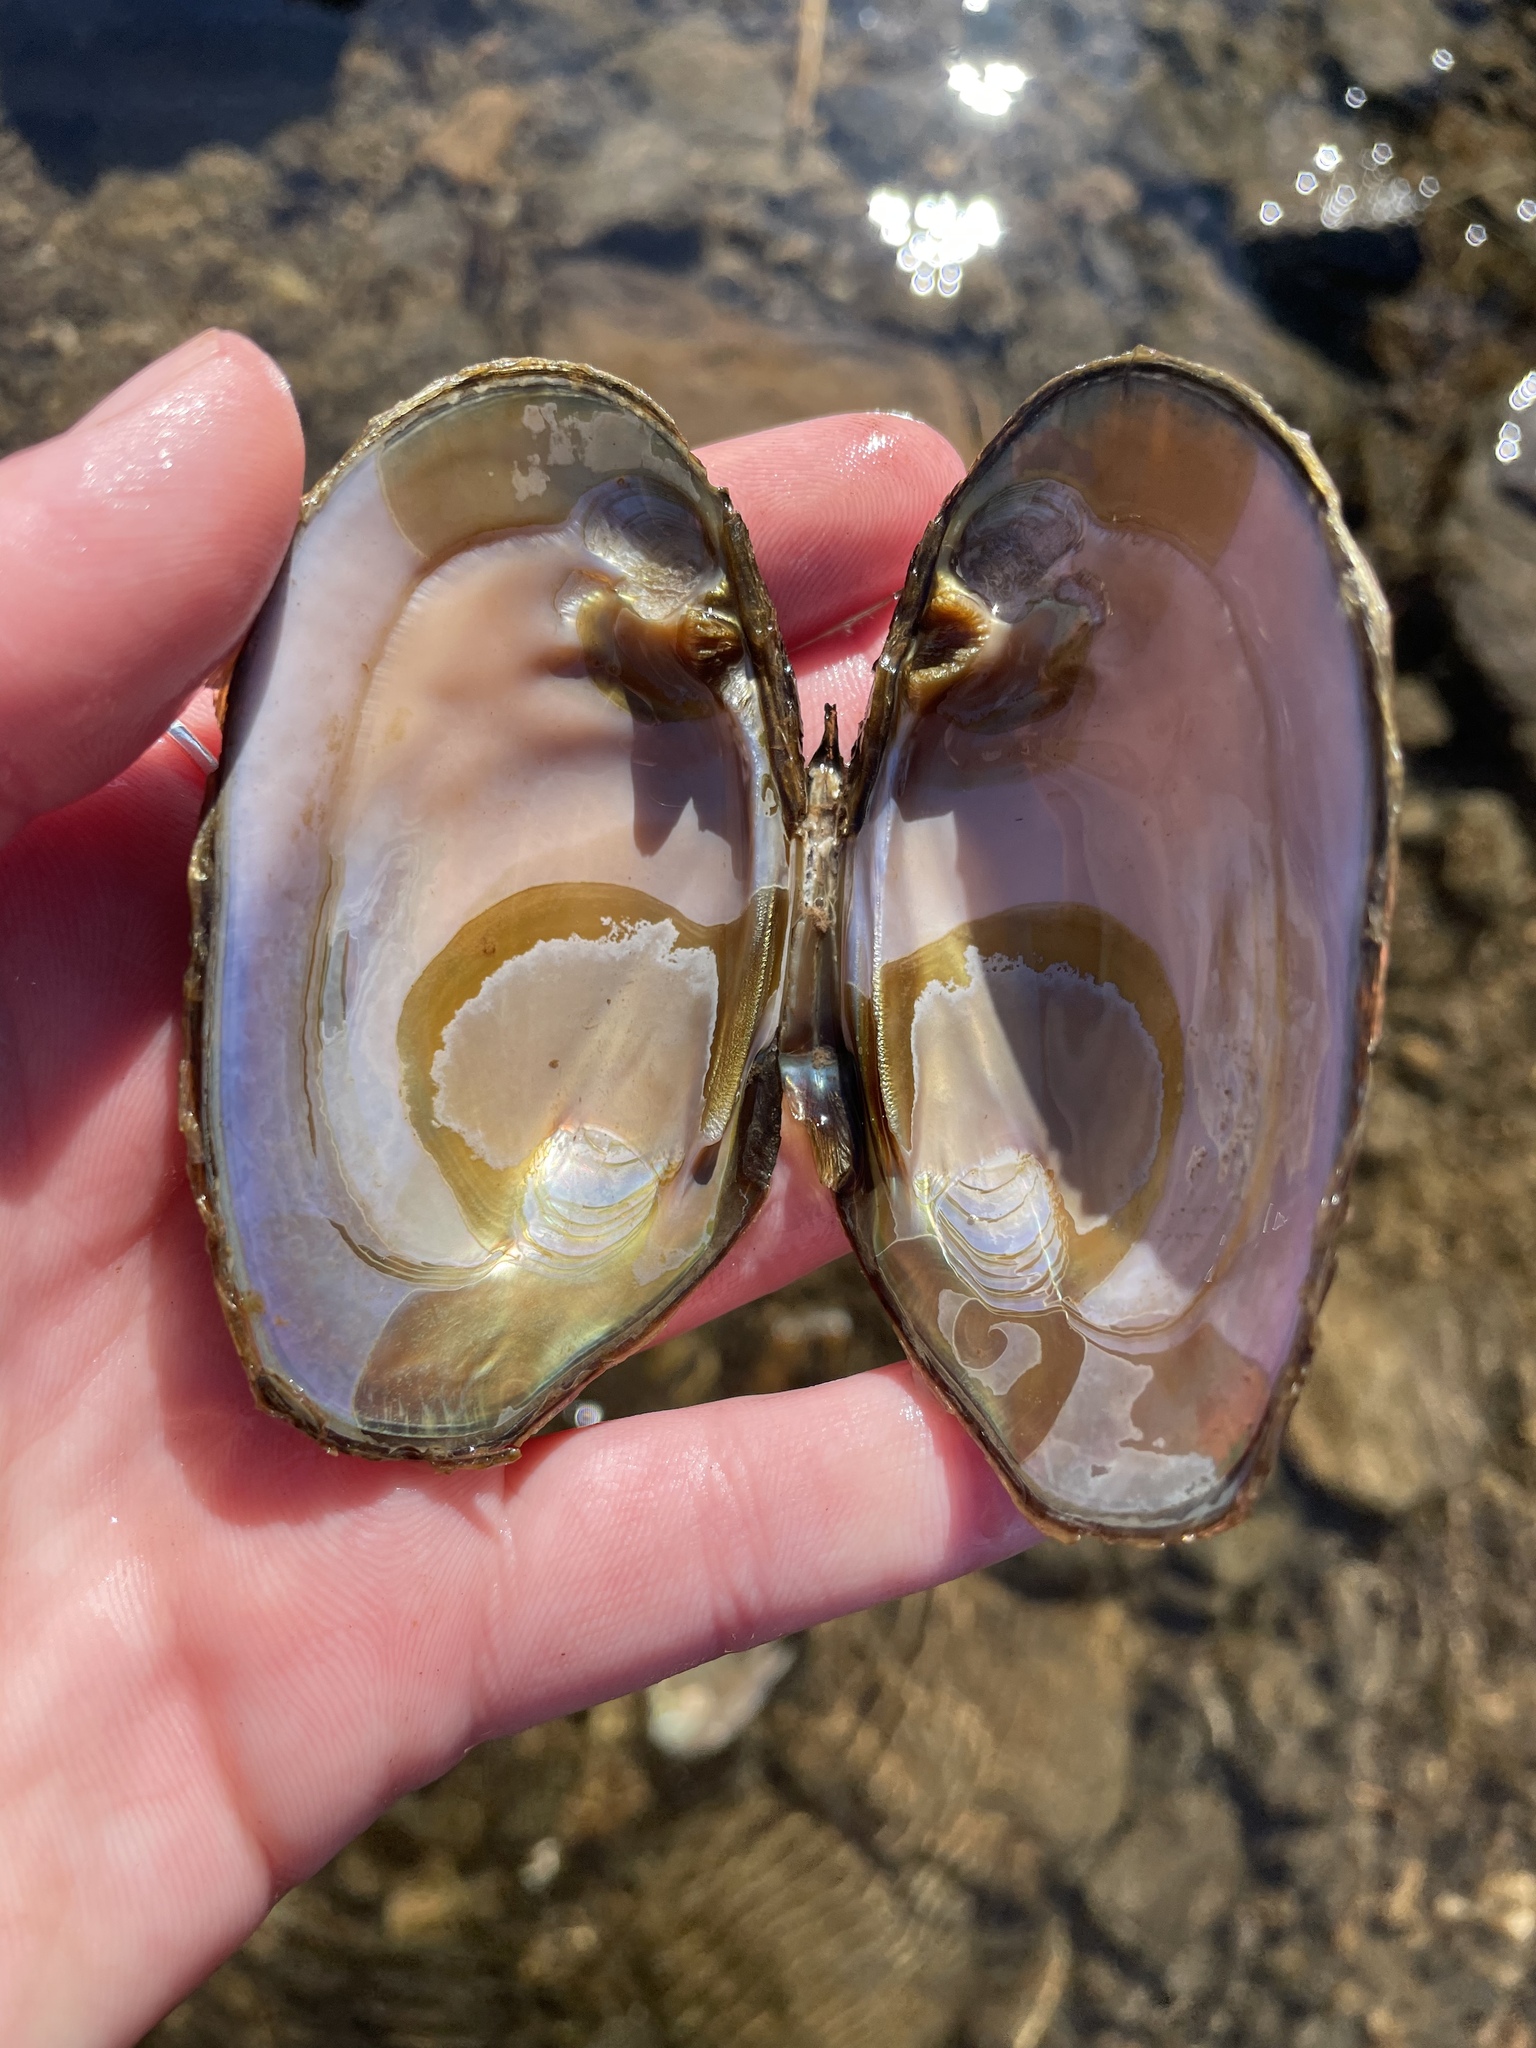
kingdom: Animalia
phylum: Mollusca
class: Bivalvia
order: Unionida
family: Unionidae
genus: Elliptio
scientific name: Elliptio complanata
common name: Eastern elliptio
